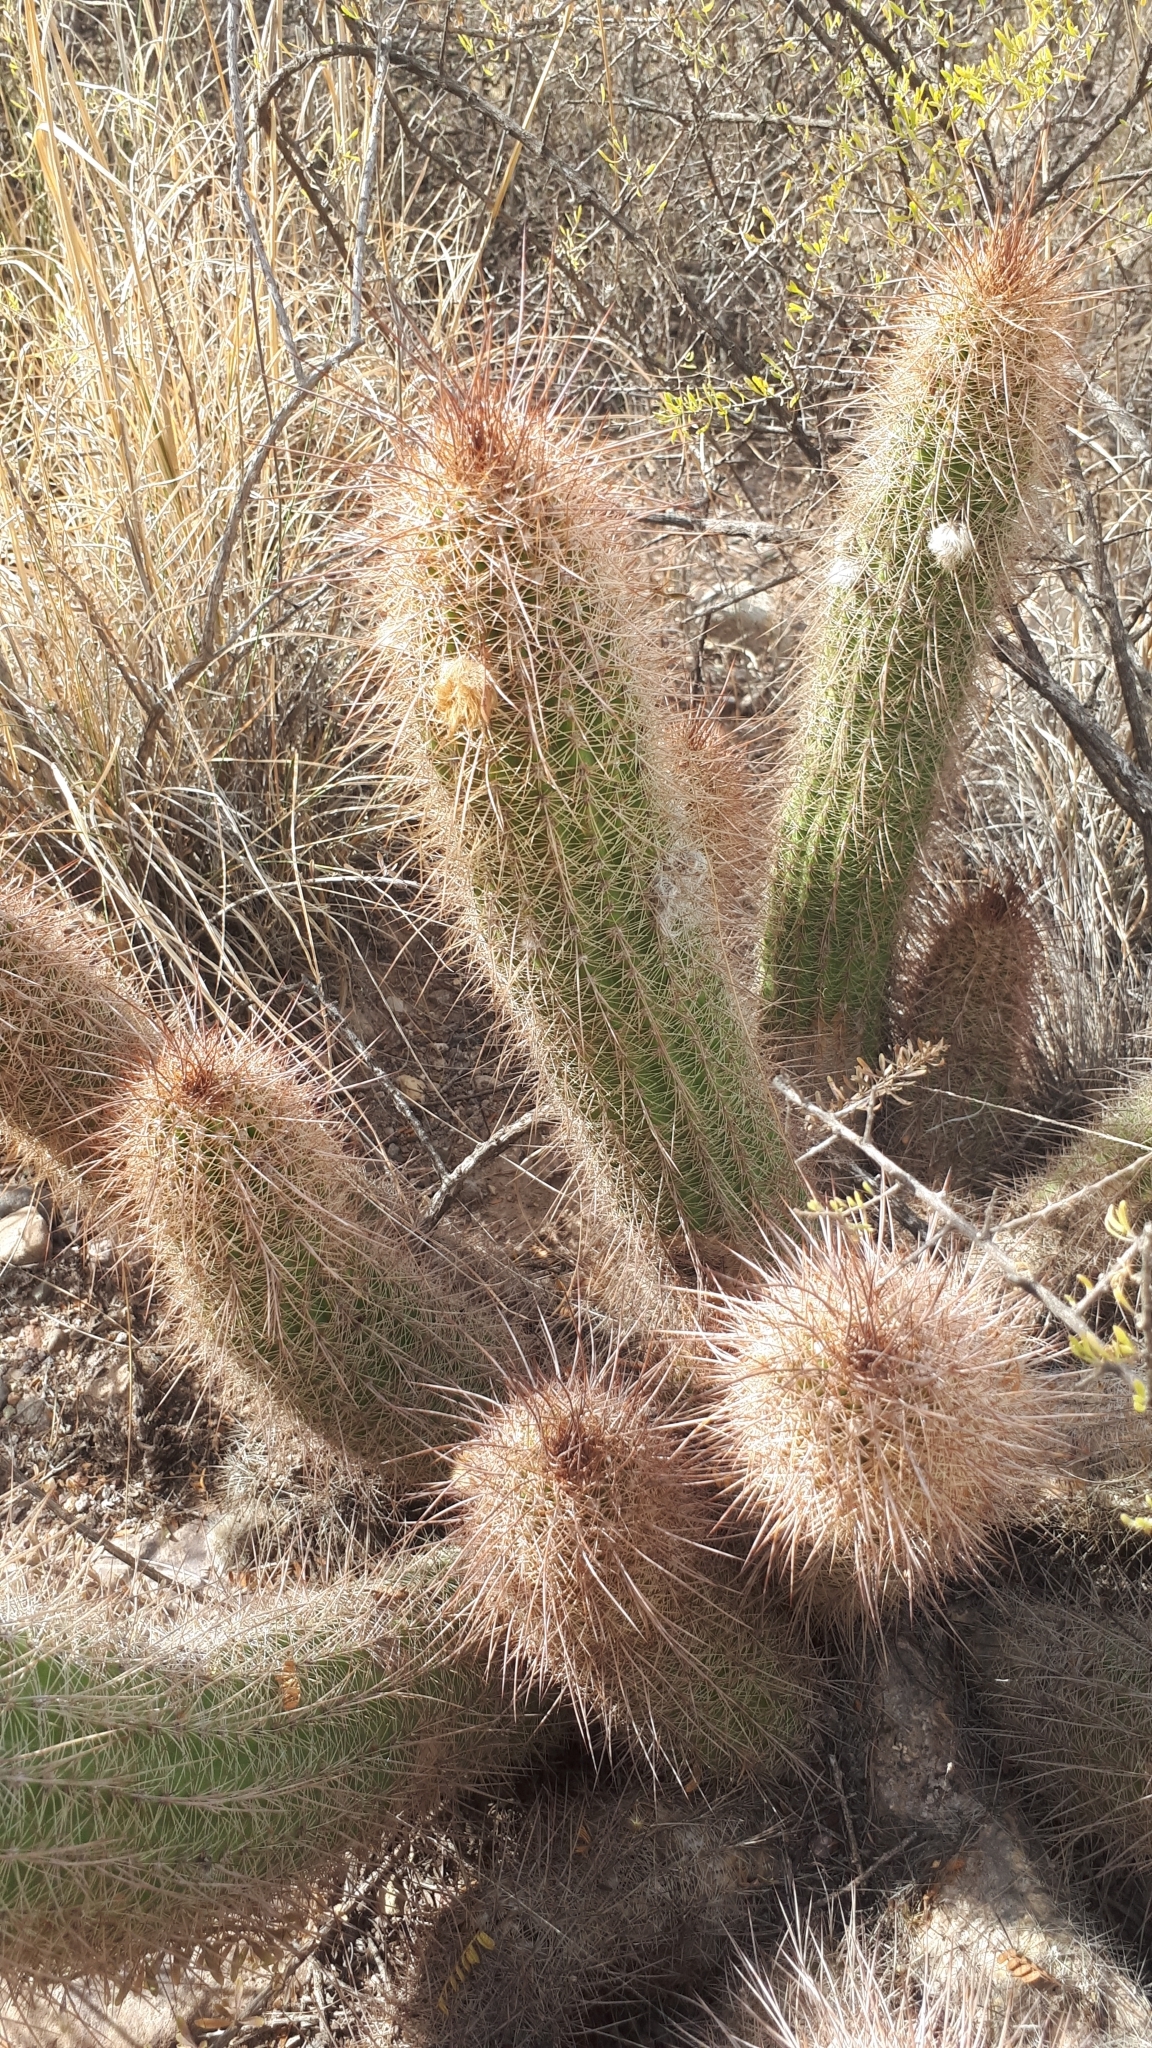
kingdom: Plantae
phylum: Tracheophyta
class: Magnoliopsida
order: Caryophyllales
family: Cactaceae
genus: Soehrensia
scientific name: Soehrensia strigosa
